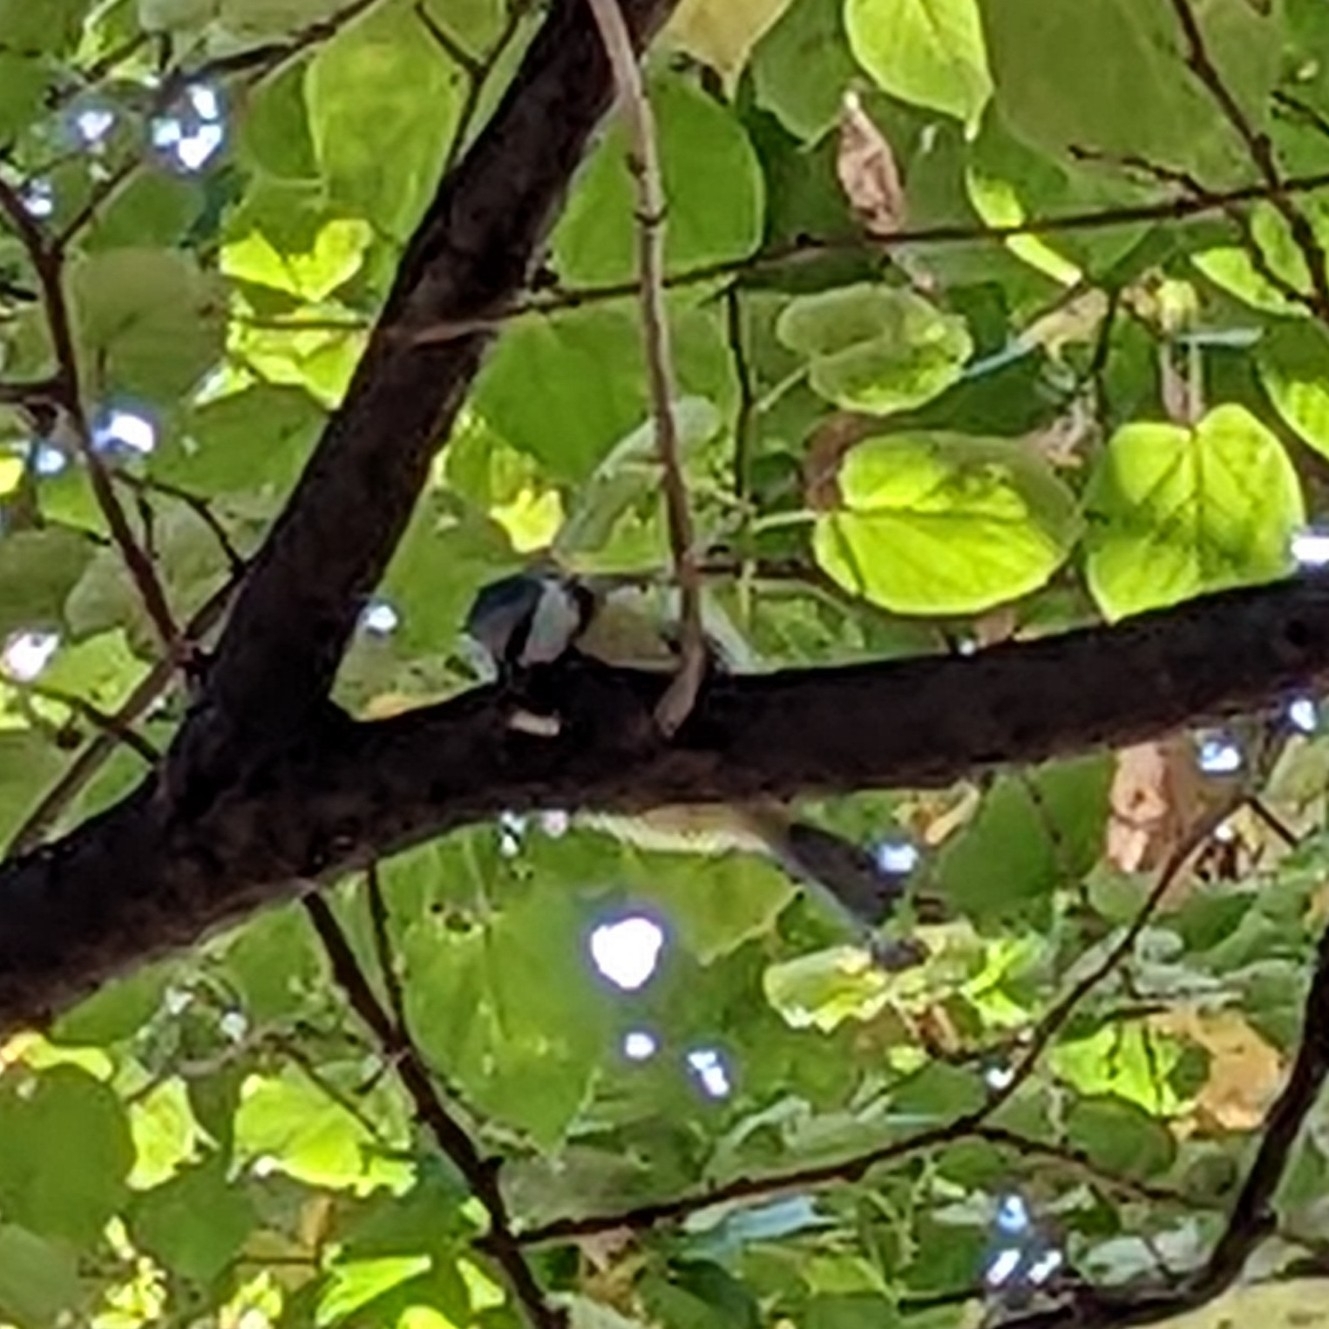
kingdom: Animalia
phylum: Chordata
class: Aves
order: Passeriformes
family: Paridae
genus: Cyanistes
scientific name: Cyanistes caeruleus
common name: Eurasian blue tit
